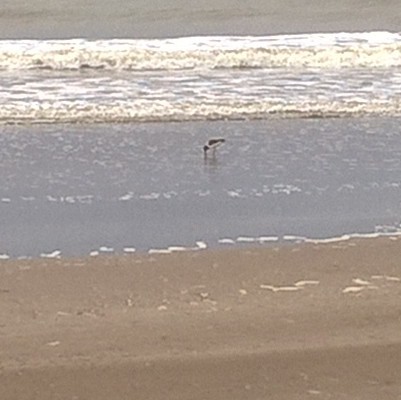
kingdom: Animalia
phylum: Chordata
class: Aves
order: Charadriiformes
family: Haematopodidae
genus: Haematopus
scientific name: Haematopus palliatus
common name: American oystercatcher
